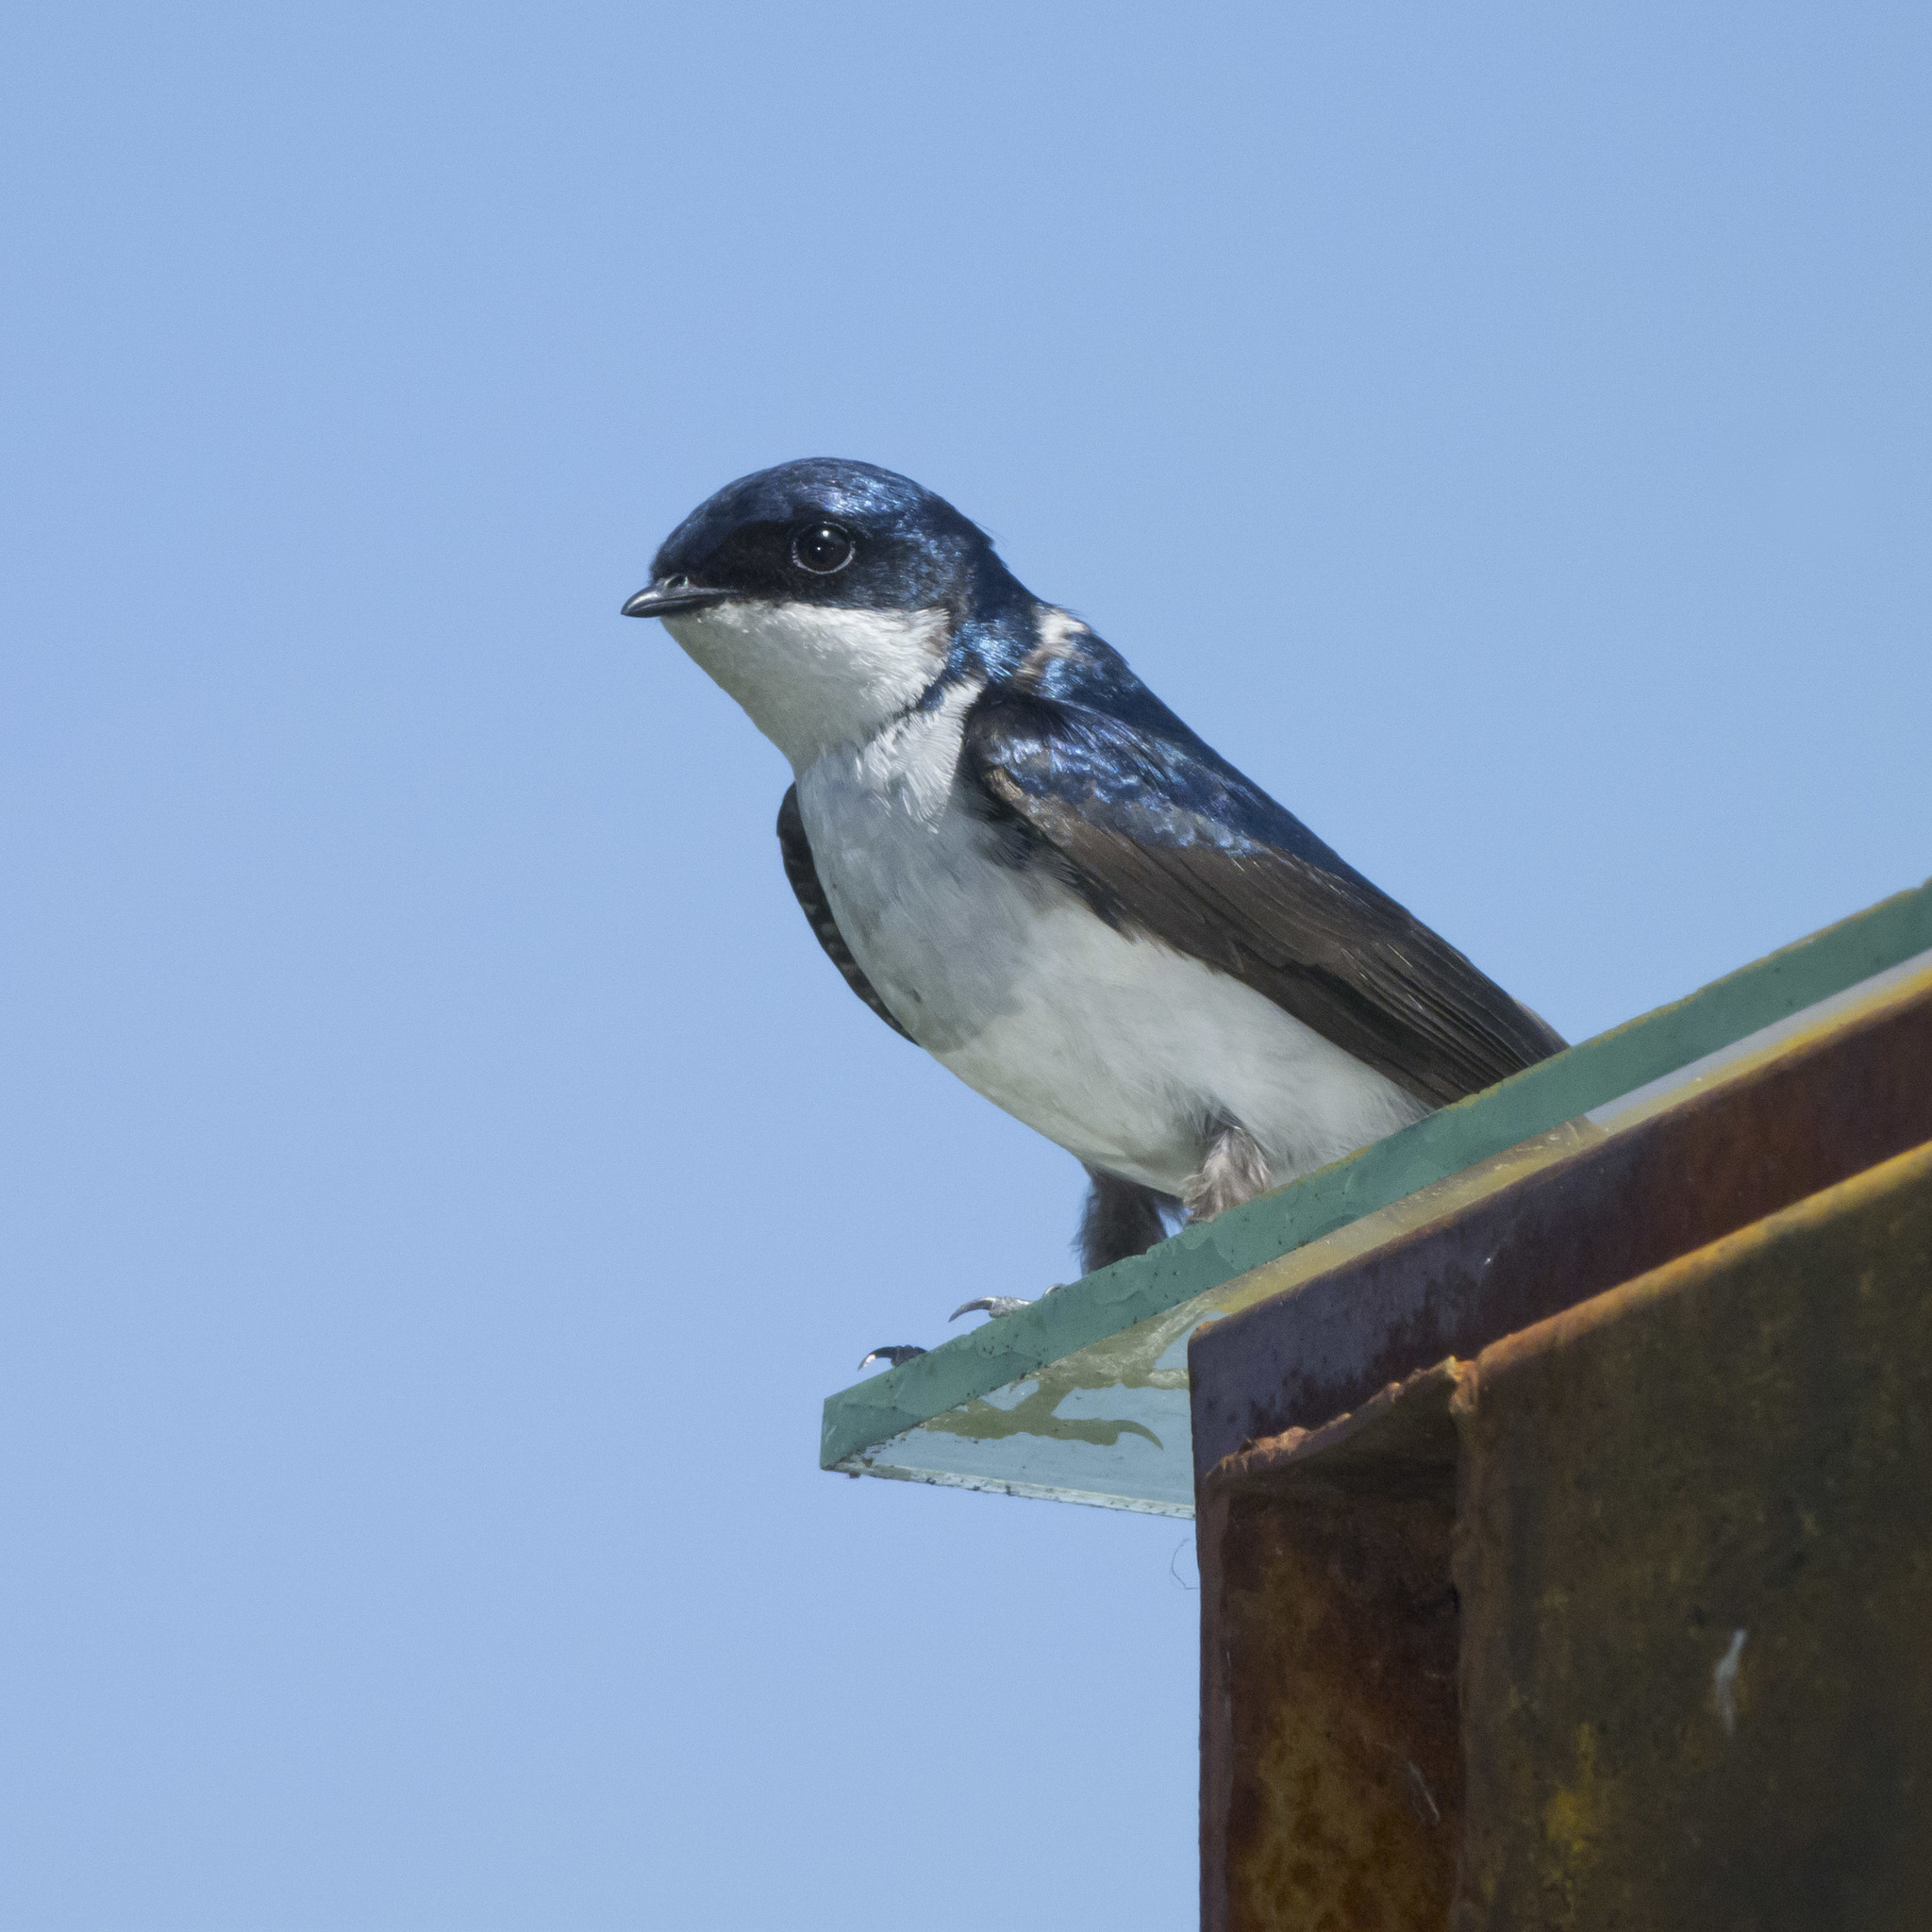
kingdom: Animalia
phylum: Chordata
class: Aves
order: Passeriformes
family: Hirundinidae
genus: Notiochelidon
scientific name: Notiochelidon cyanoleuca
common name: Blue-and-white swallow
